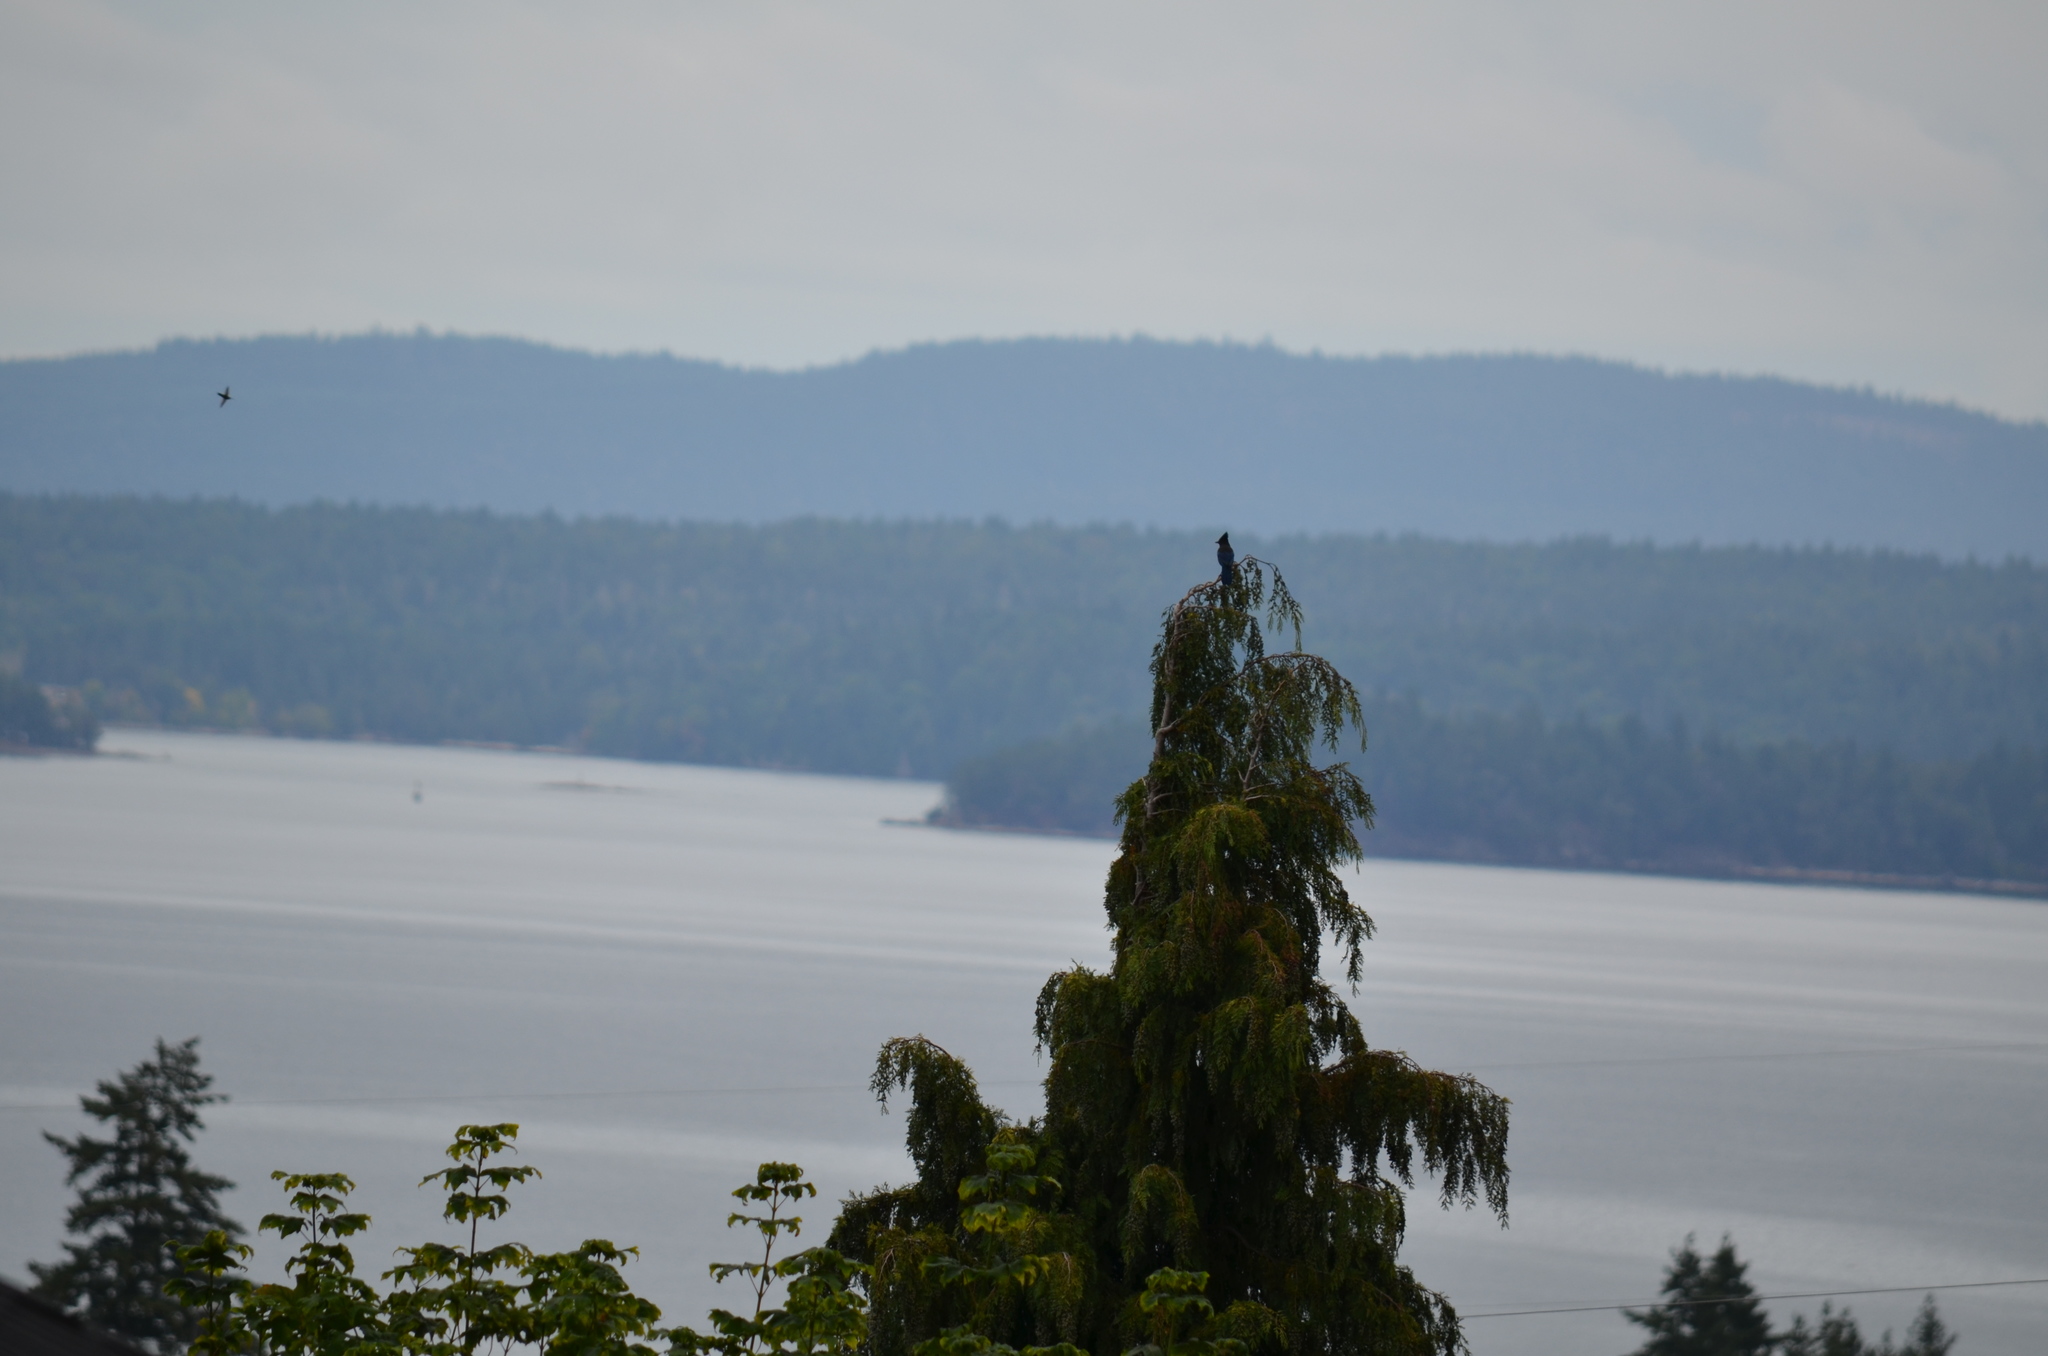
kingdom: Animalia
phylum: Chordata
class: Aves
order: Passeriformes
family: Corvidae
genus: Cyanocitta
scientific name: Cyanocitta stelleri
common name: Steller's jay
